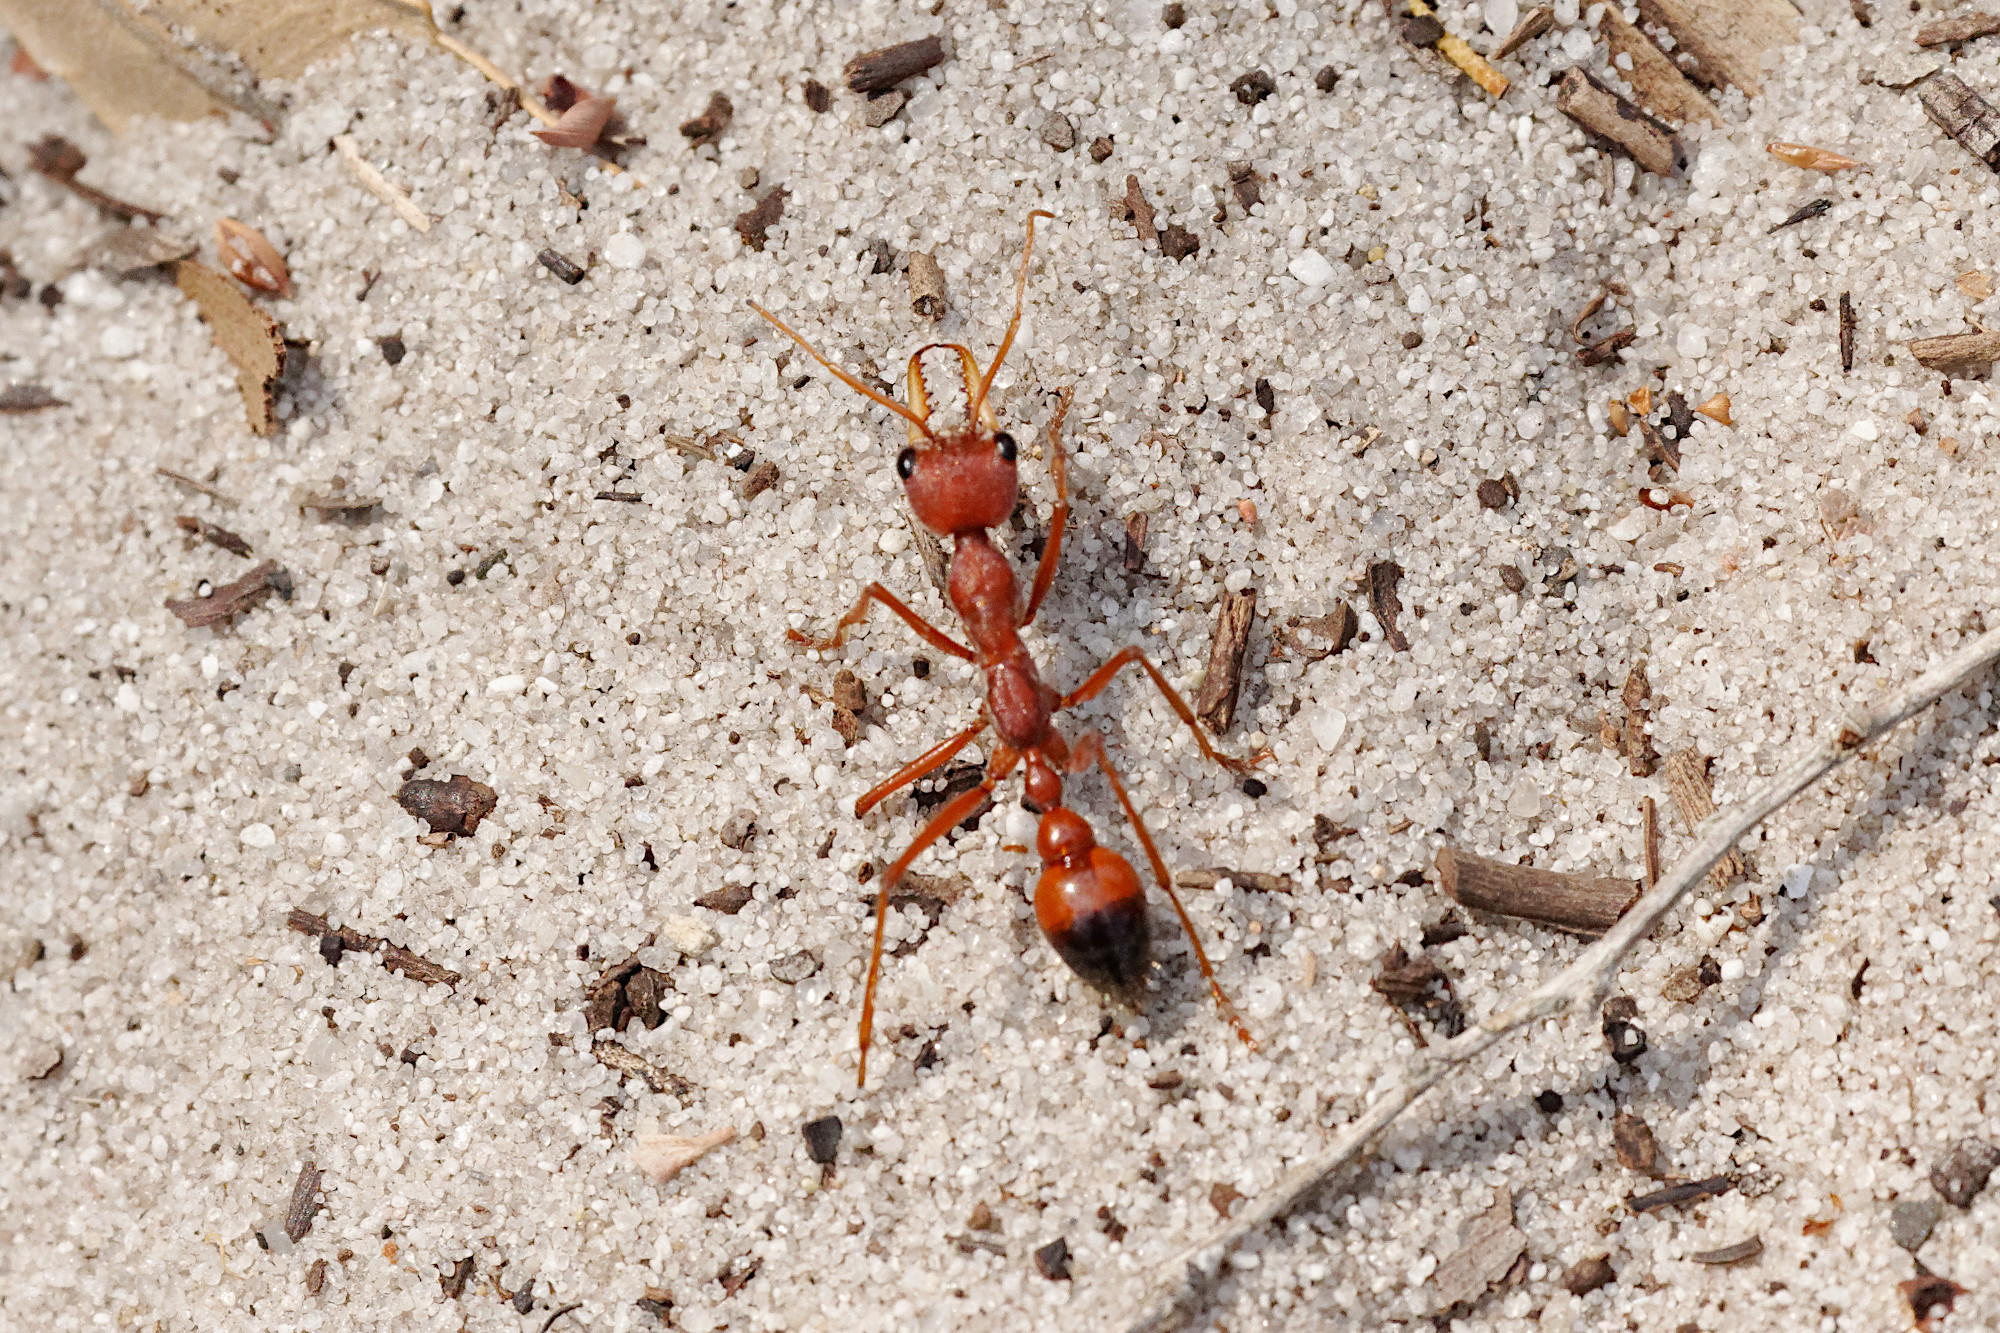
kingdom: Animalia
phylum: Arthropoda
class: Insecta
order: Hymenoptera
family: Formicidae
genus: Myrmecia
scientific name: Myrmecia gulosa
